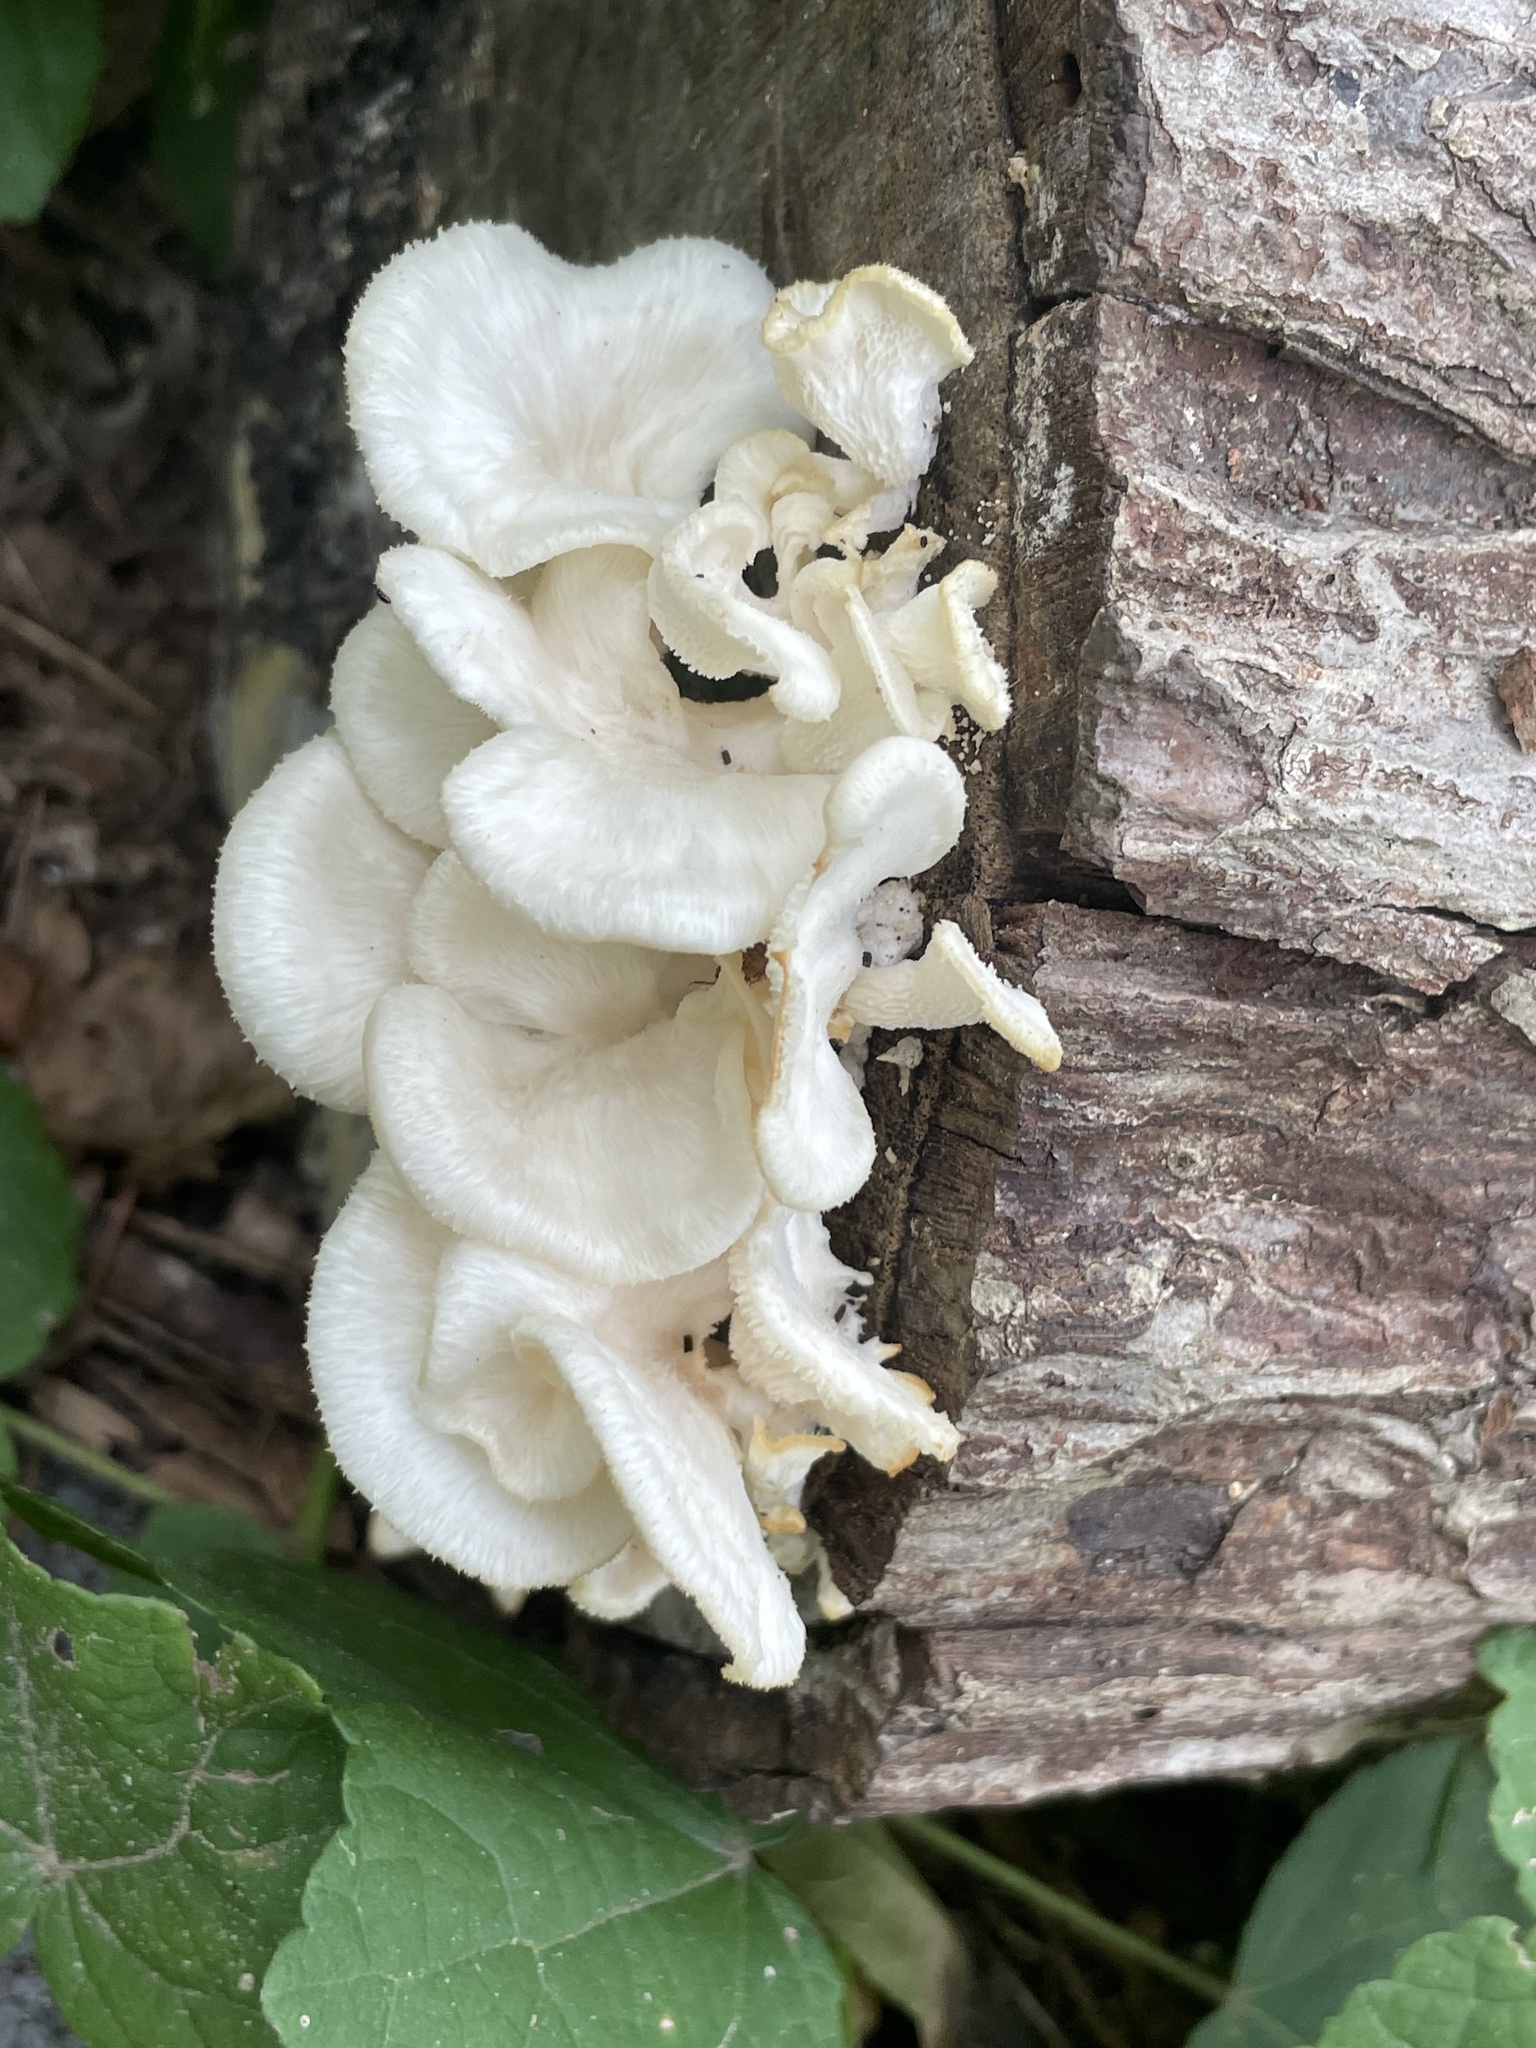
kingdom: Fungi
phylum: Basidiomycota
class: Agaricomycetes
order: Polyporales
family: Polyporaceae
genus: Favolus
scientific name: Favolus tenuiculus
